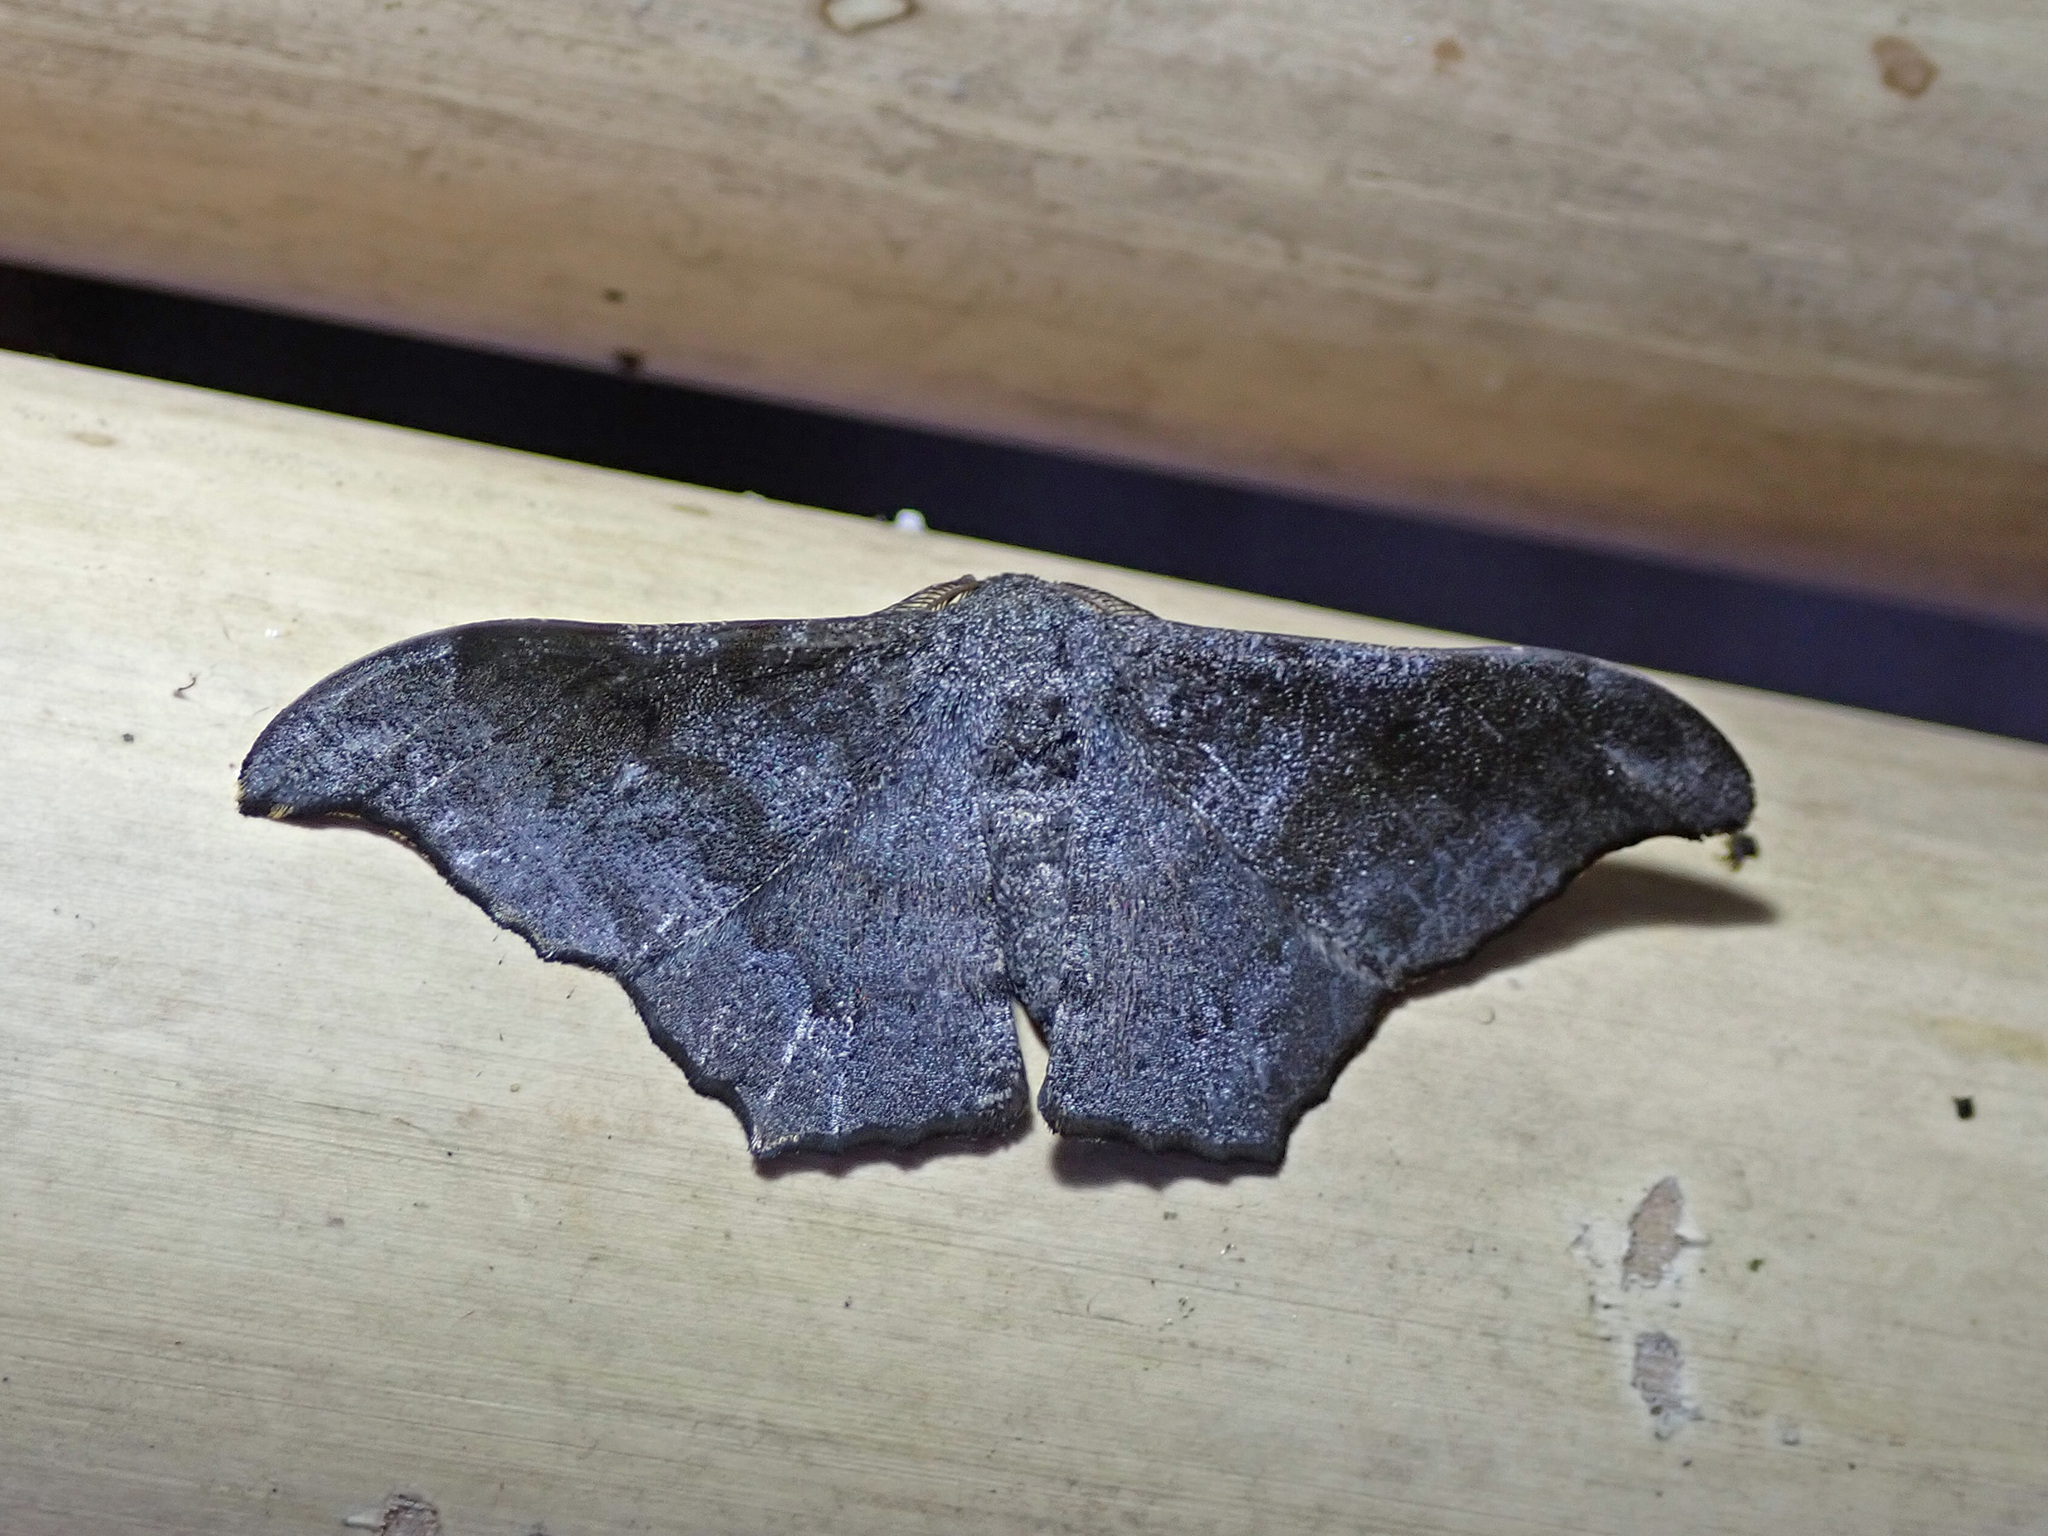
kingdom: Animalia
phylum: Arthropoda
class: Insecta
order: Lepidoptera
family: Geometridae
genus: Hyposidra
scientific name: Hyposidra talaca
